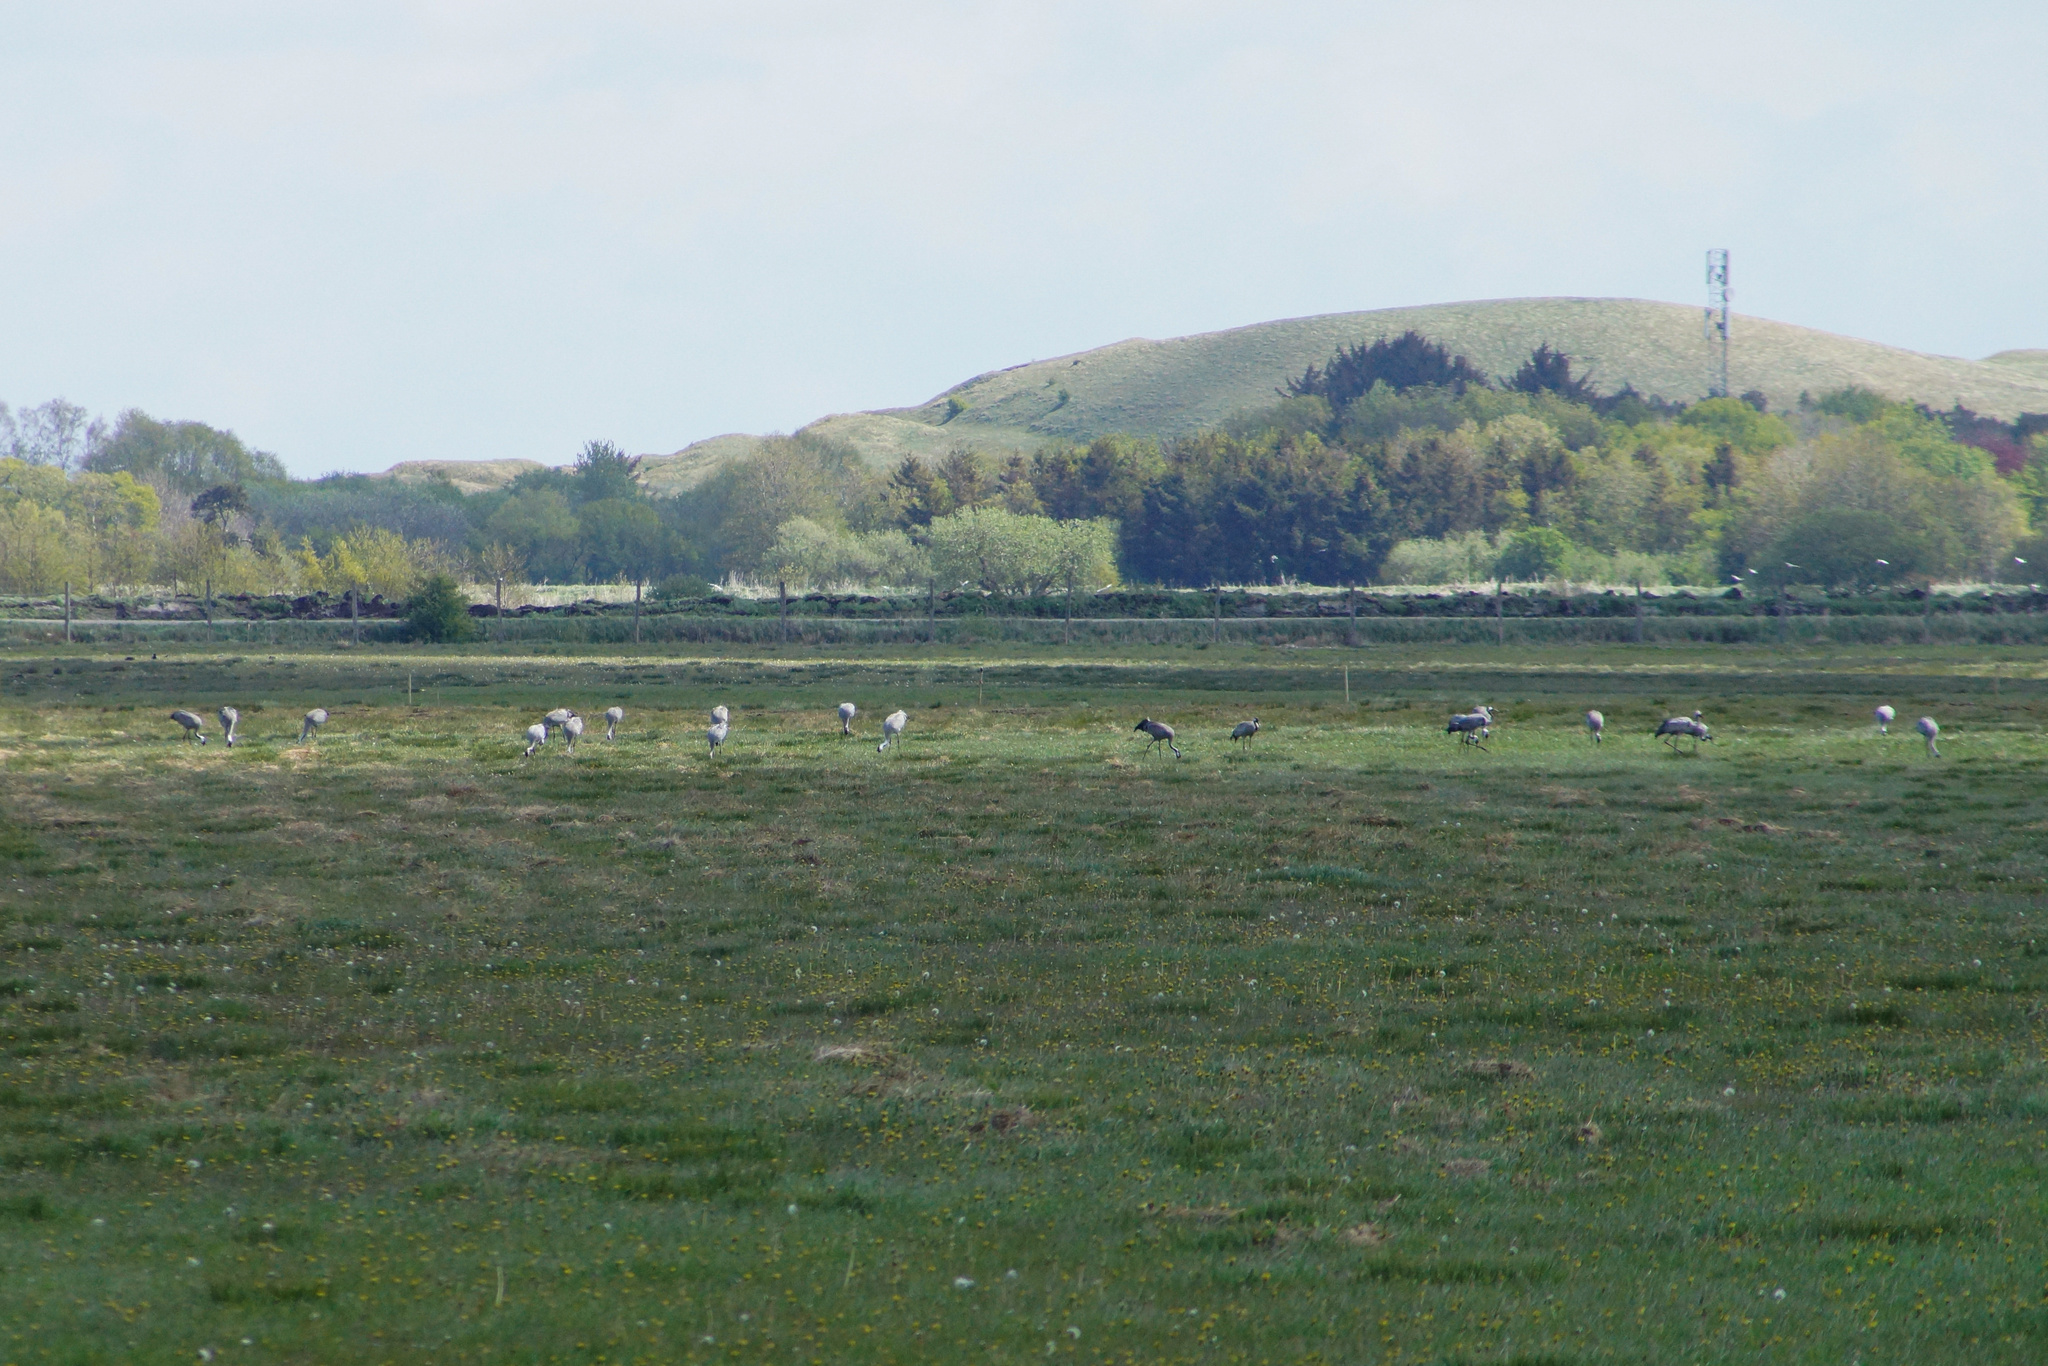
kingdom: Animalia
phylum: Chordata
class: Aves
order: Gruiformes
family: Gruidae
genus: Grus
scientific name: Grus grus
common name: Common crane
